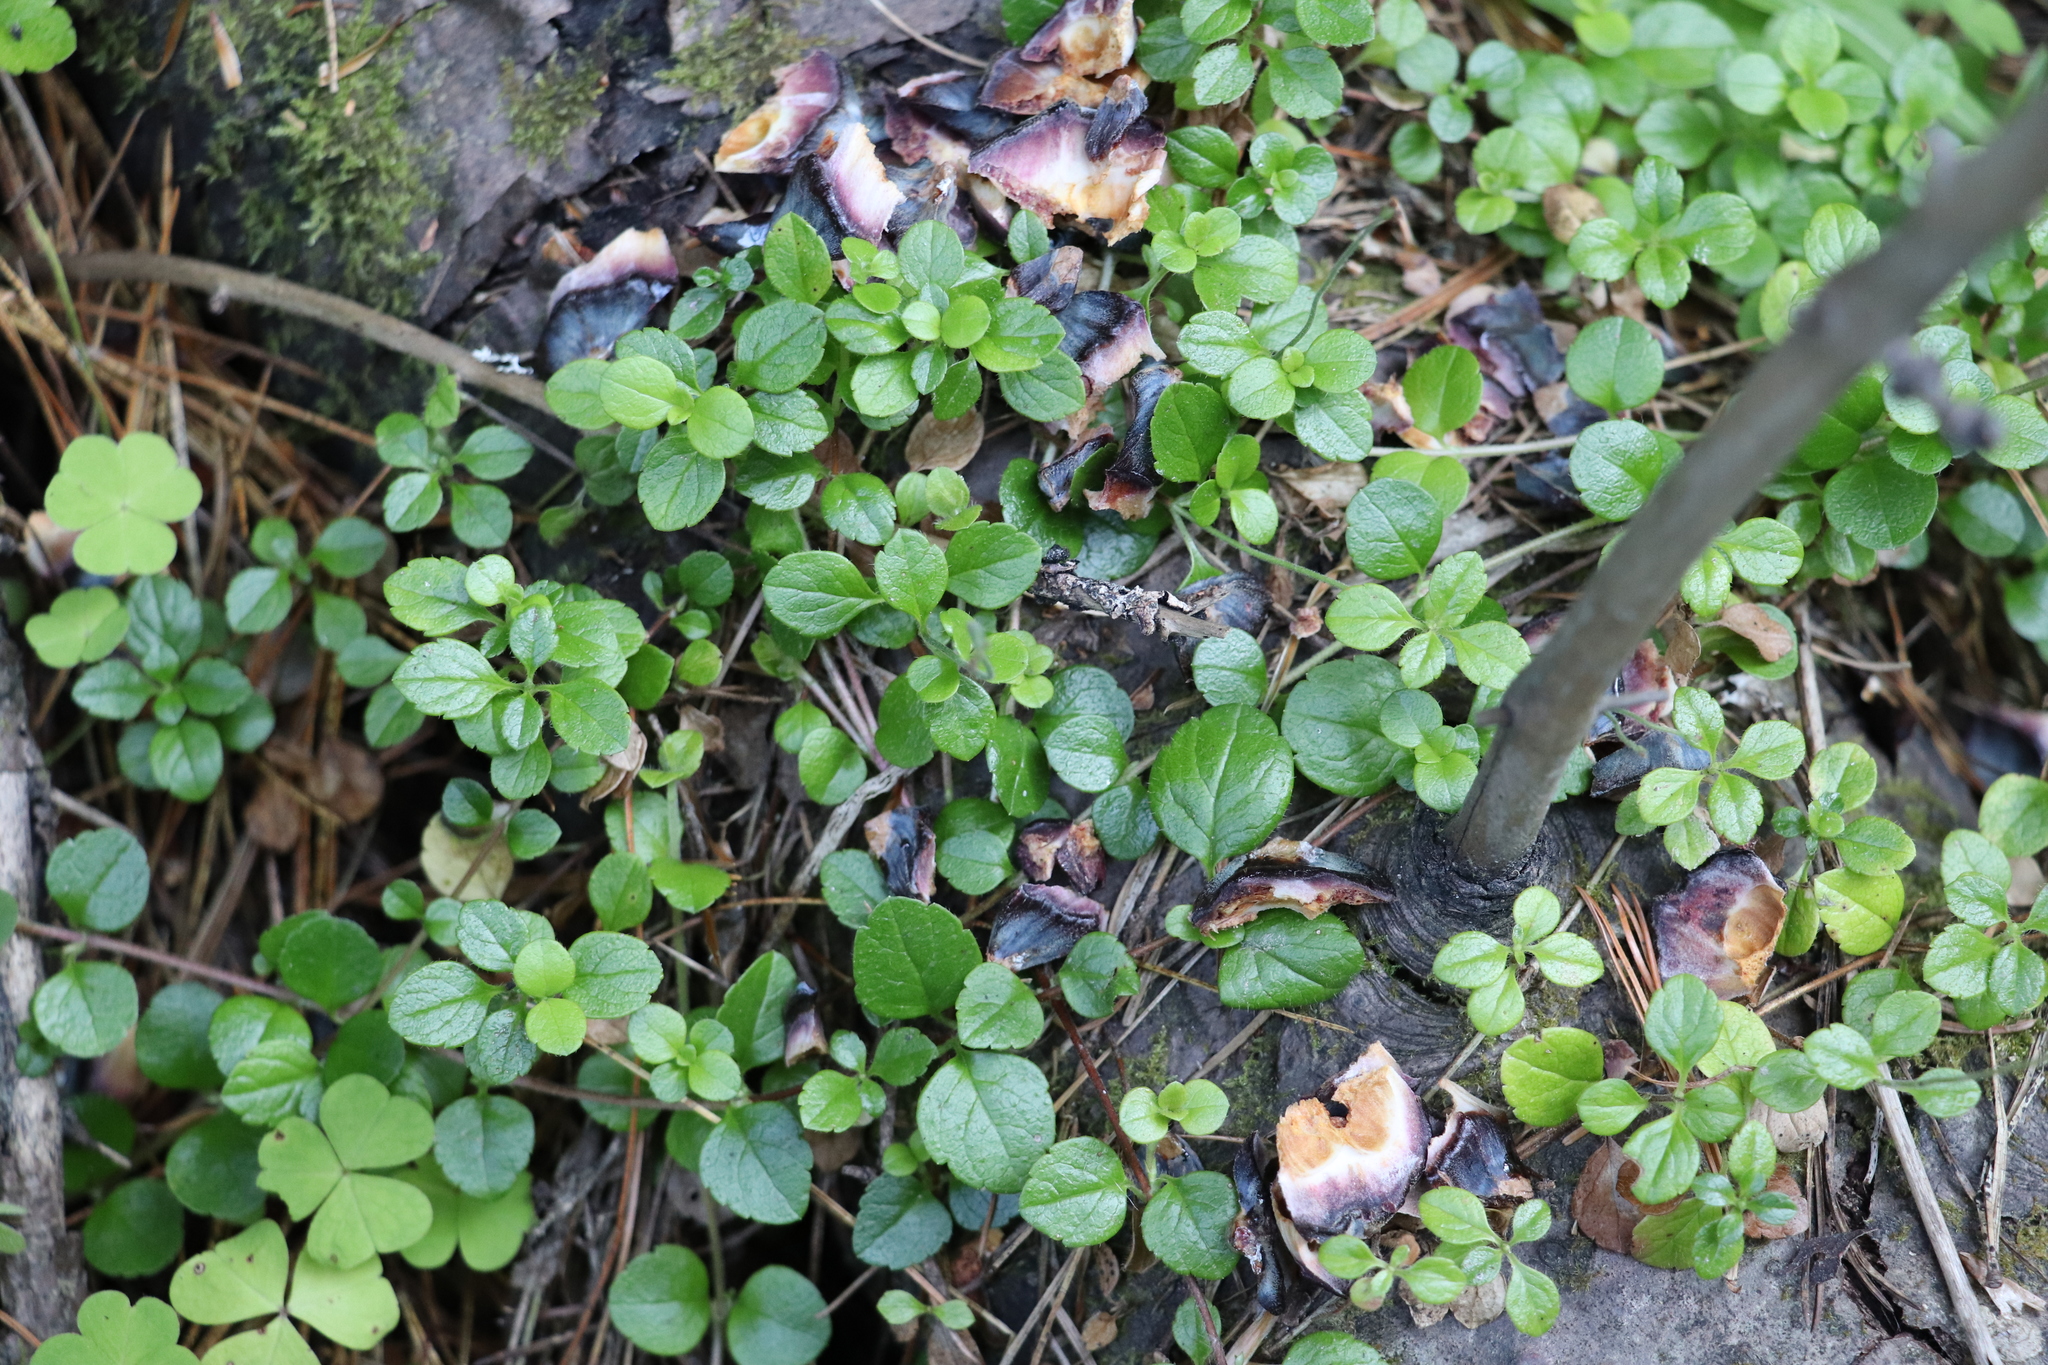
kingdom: Plantae
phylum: Tracheophyta
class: Magnoliopsida
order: Dipsacales
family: Caprifoliaceae
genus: Linnaea
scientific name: Linnaea borealis
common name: Twinflower
